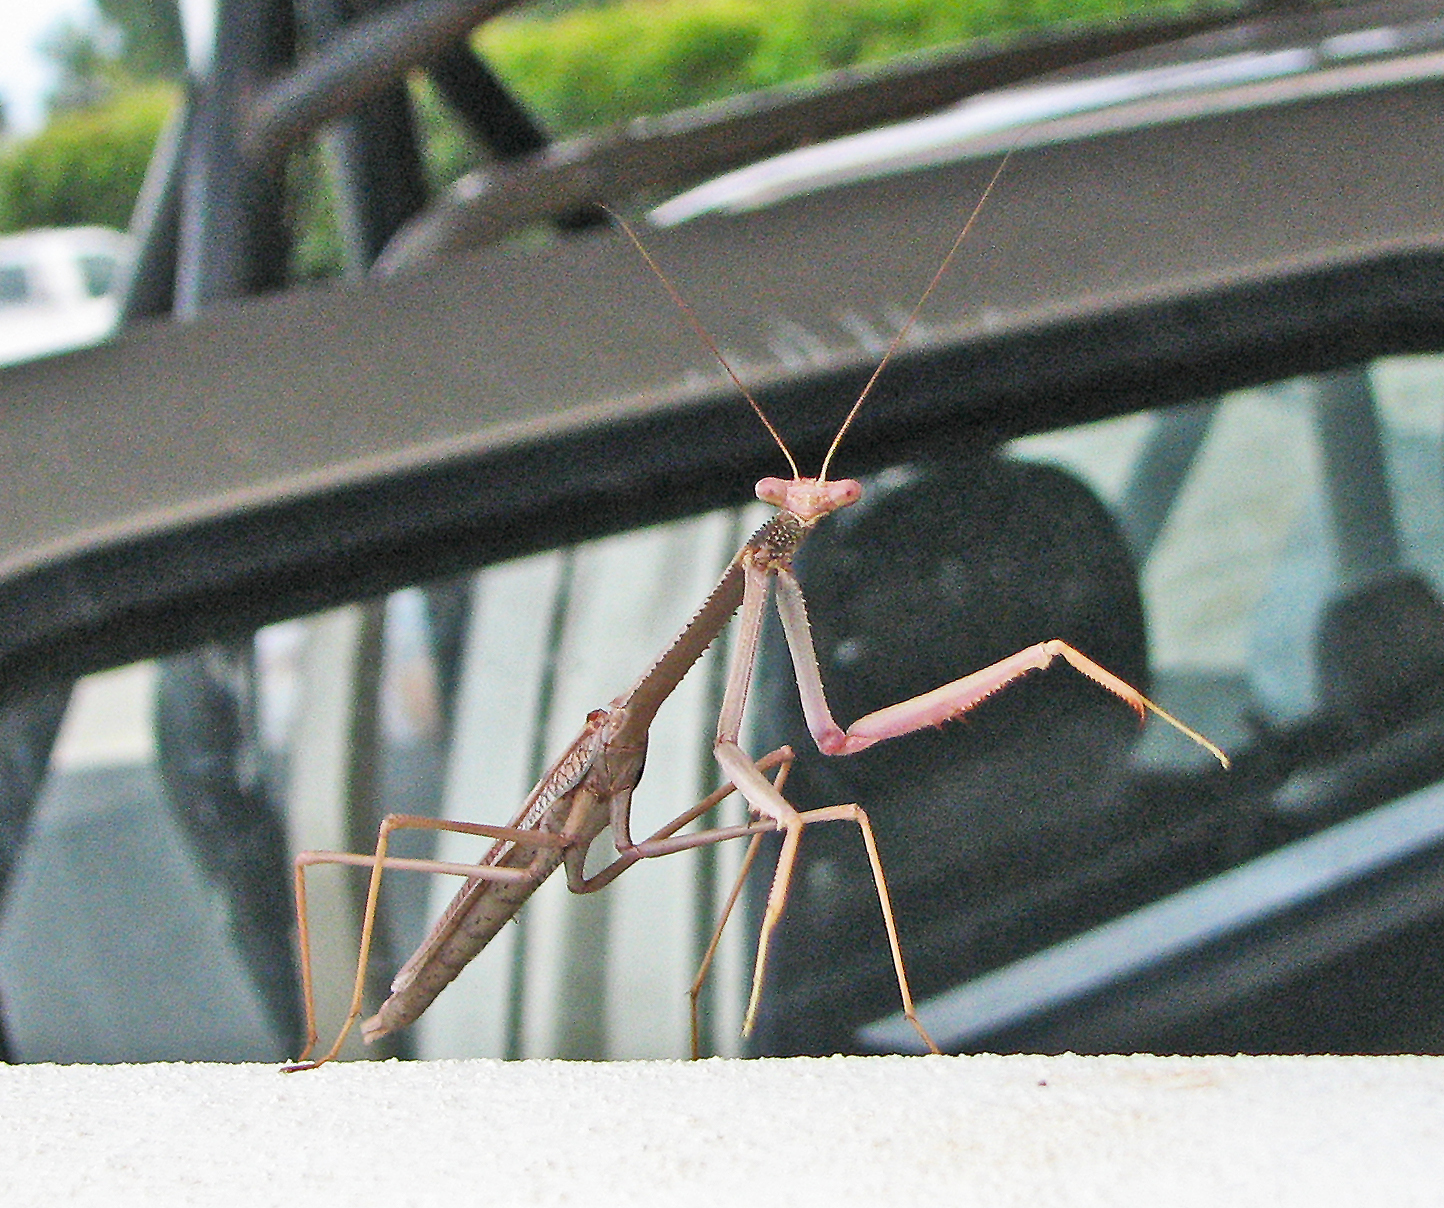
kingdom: Animalia
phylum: Arthropoda
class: Insecta
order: Mantodea
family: Mantidae
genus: Archimantis
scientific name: Archimantis armata
